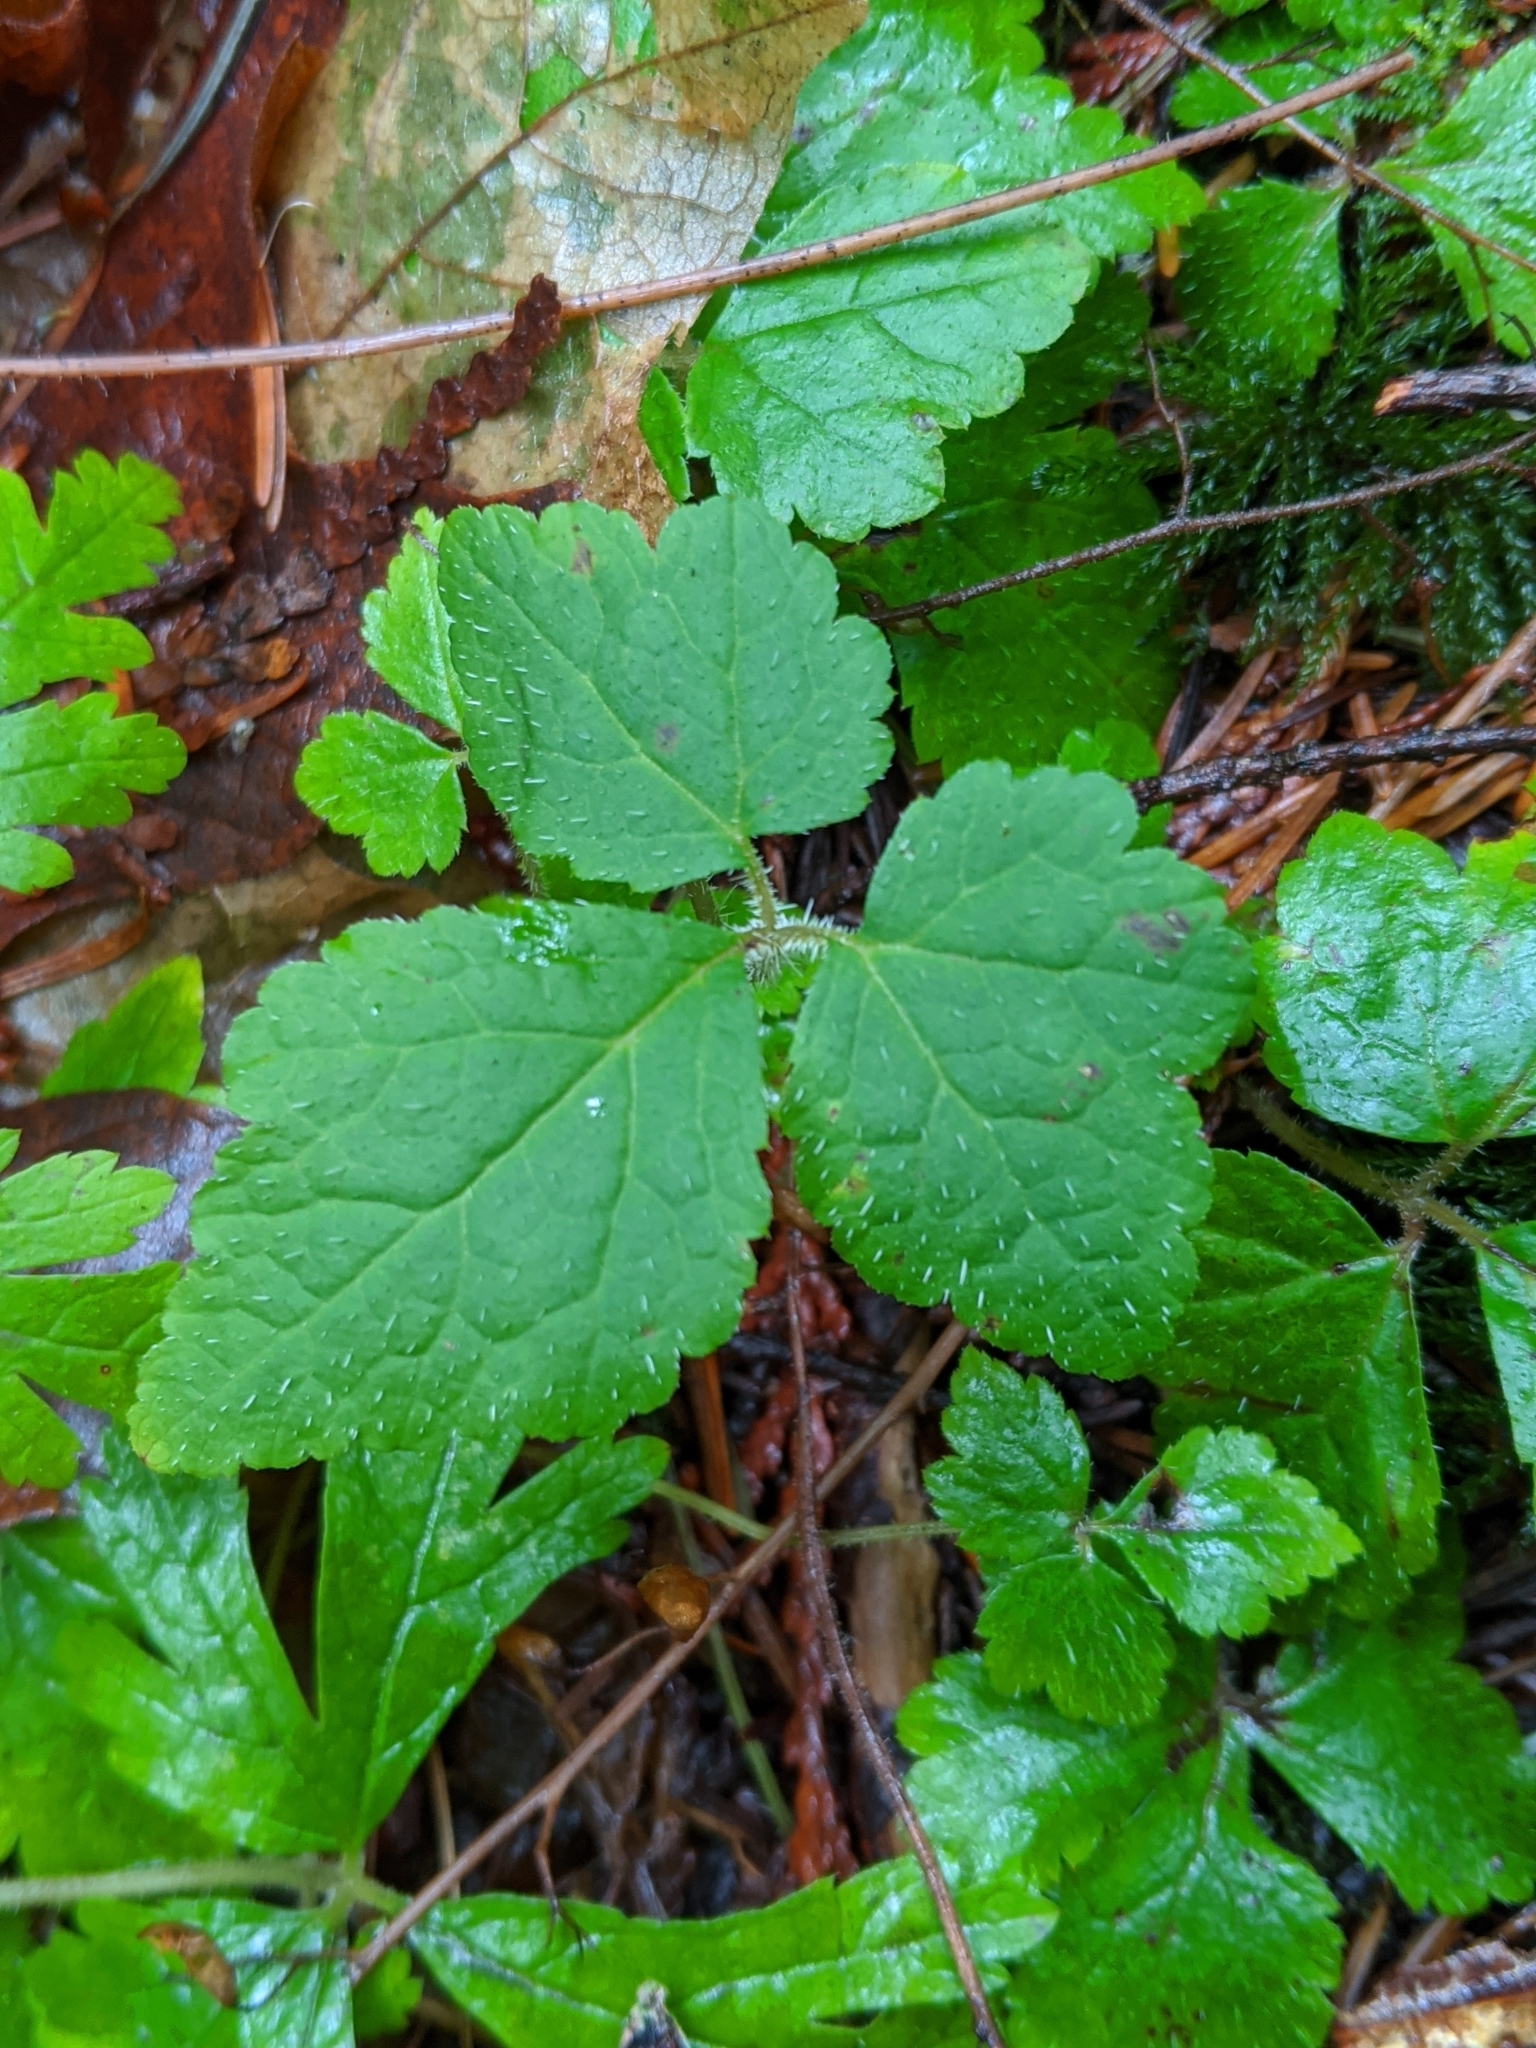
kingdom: Plantae
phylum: Tracheophyta
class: Magnoliopsida
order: Saxifragales
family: Saxifragaceae
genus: Tiarella
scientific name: Tiarella trifoliata
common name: Sugar-scoop
